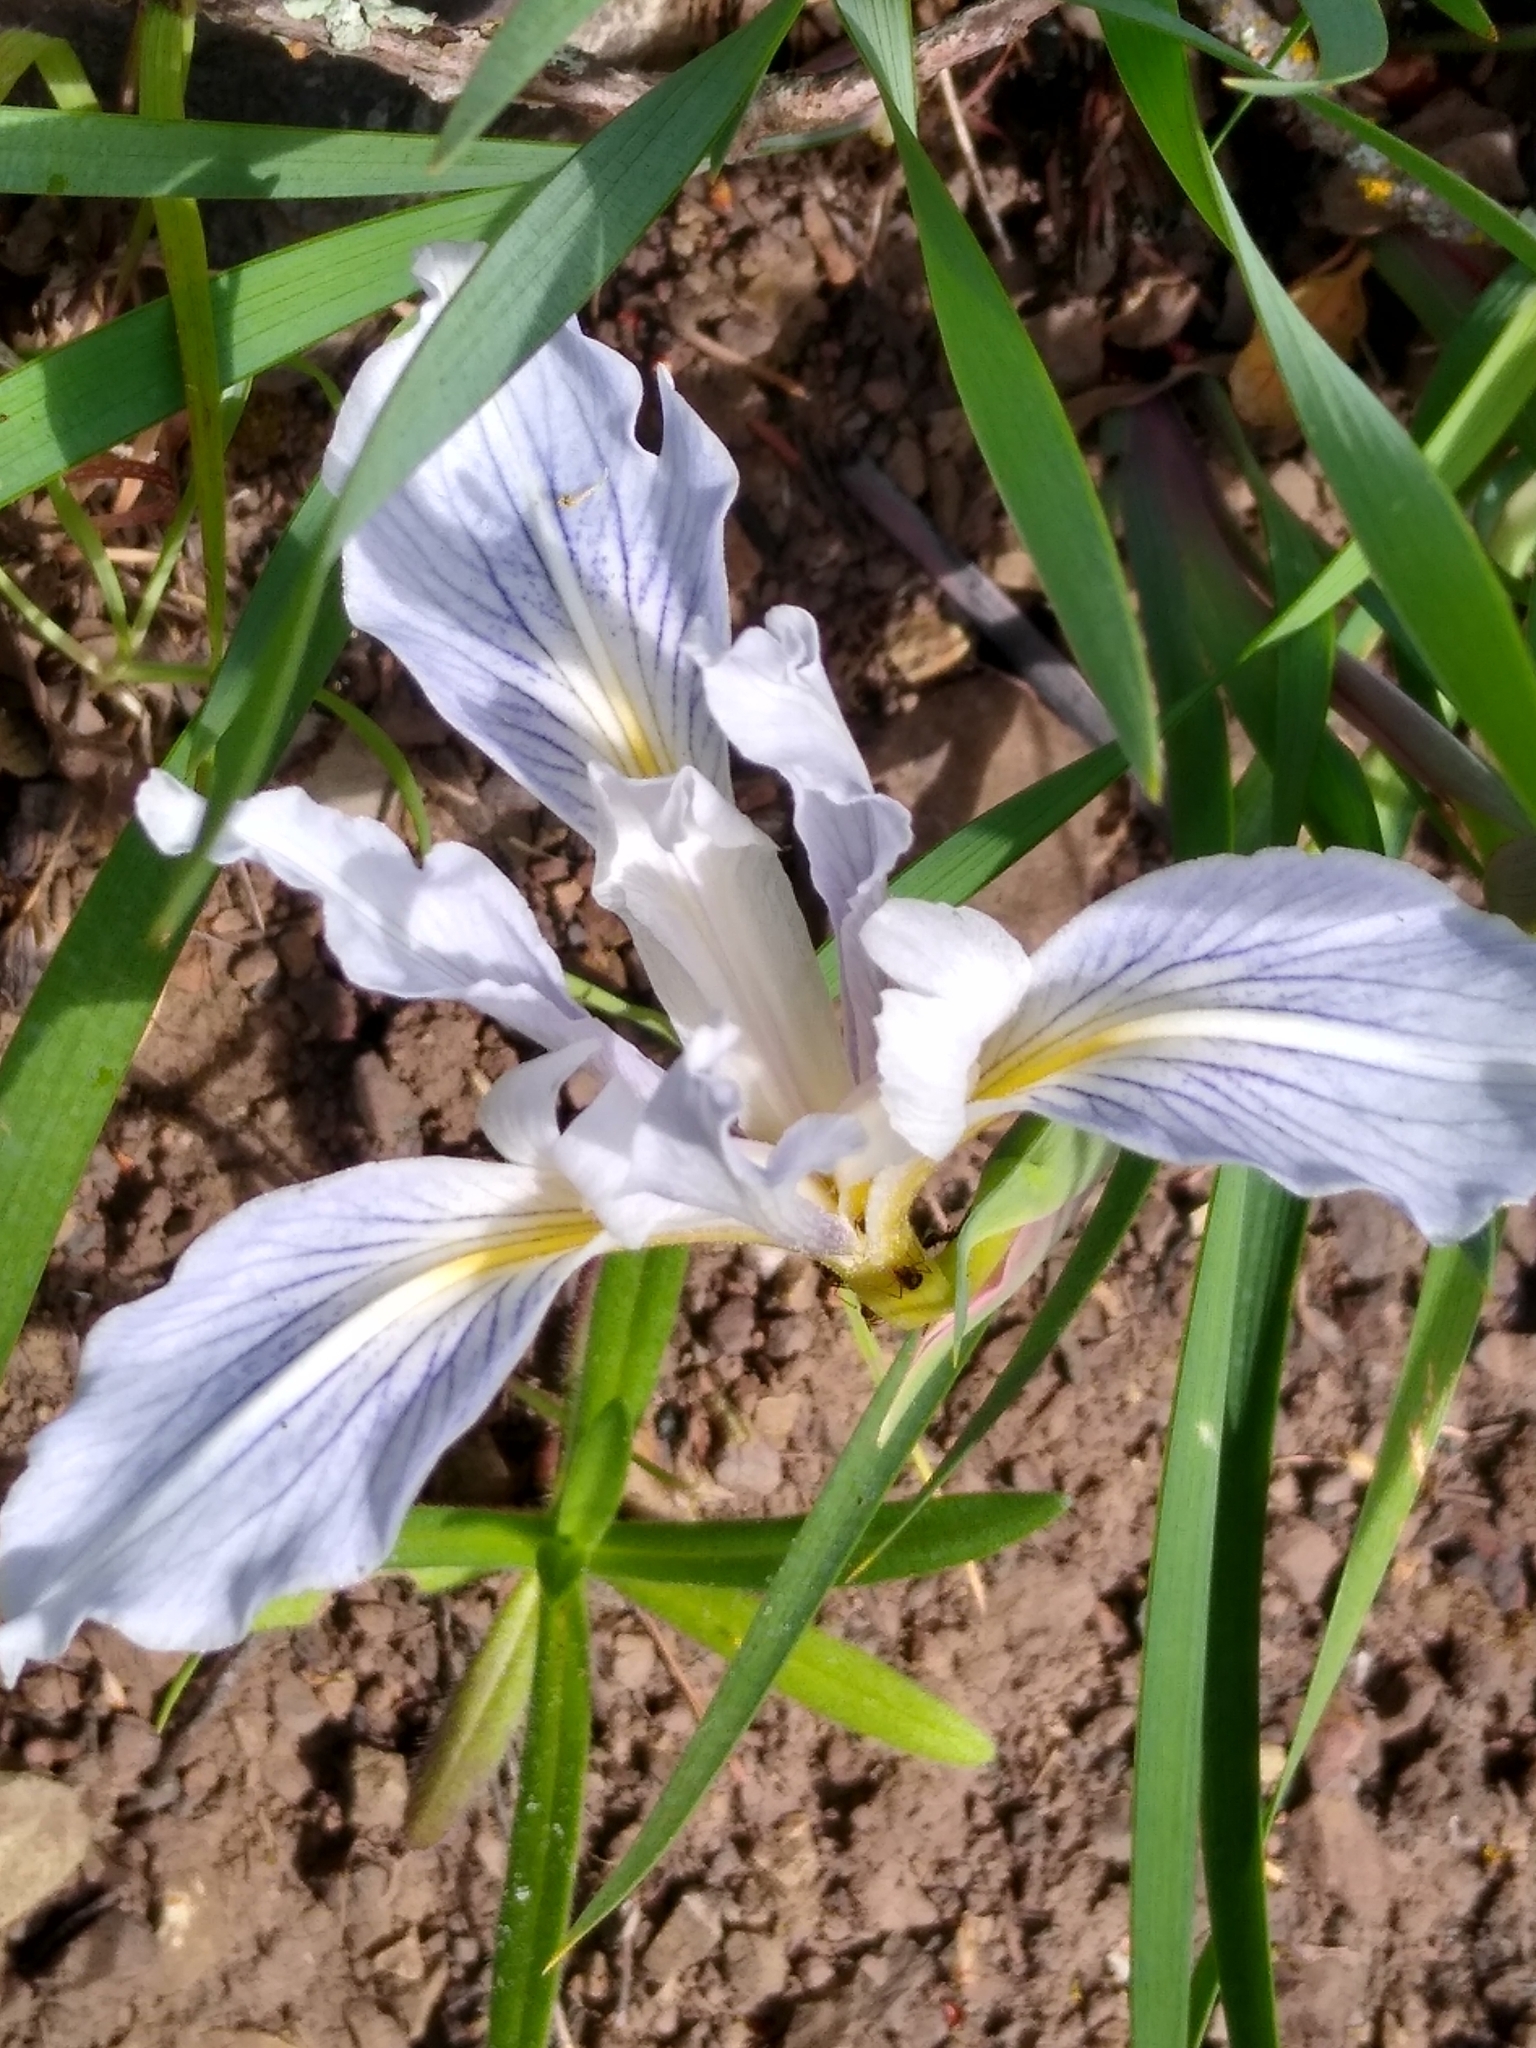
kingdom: Plantae
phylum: Tracheophyta
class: Liliopsida
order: Asparagales
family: Iridaceae
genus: Iris
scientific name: Iris macrosiphon
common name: Ground iris
